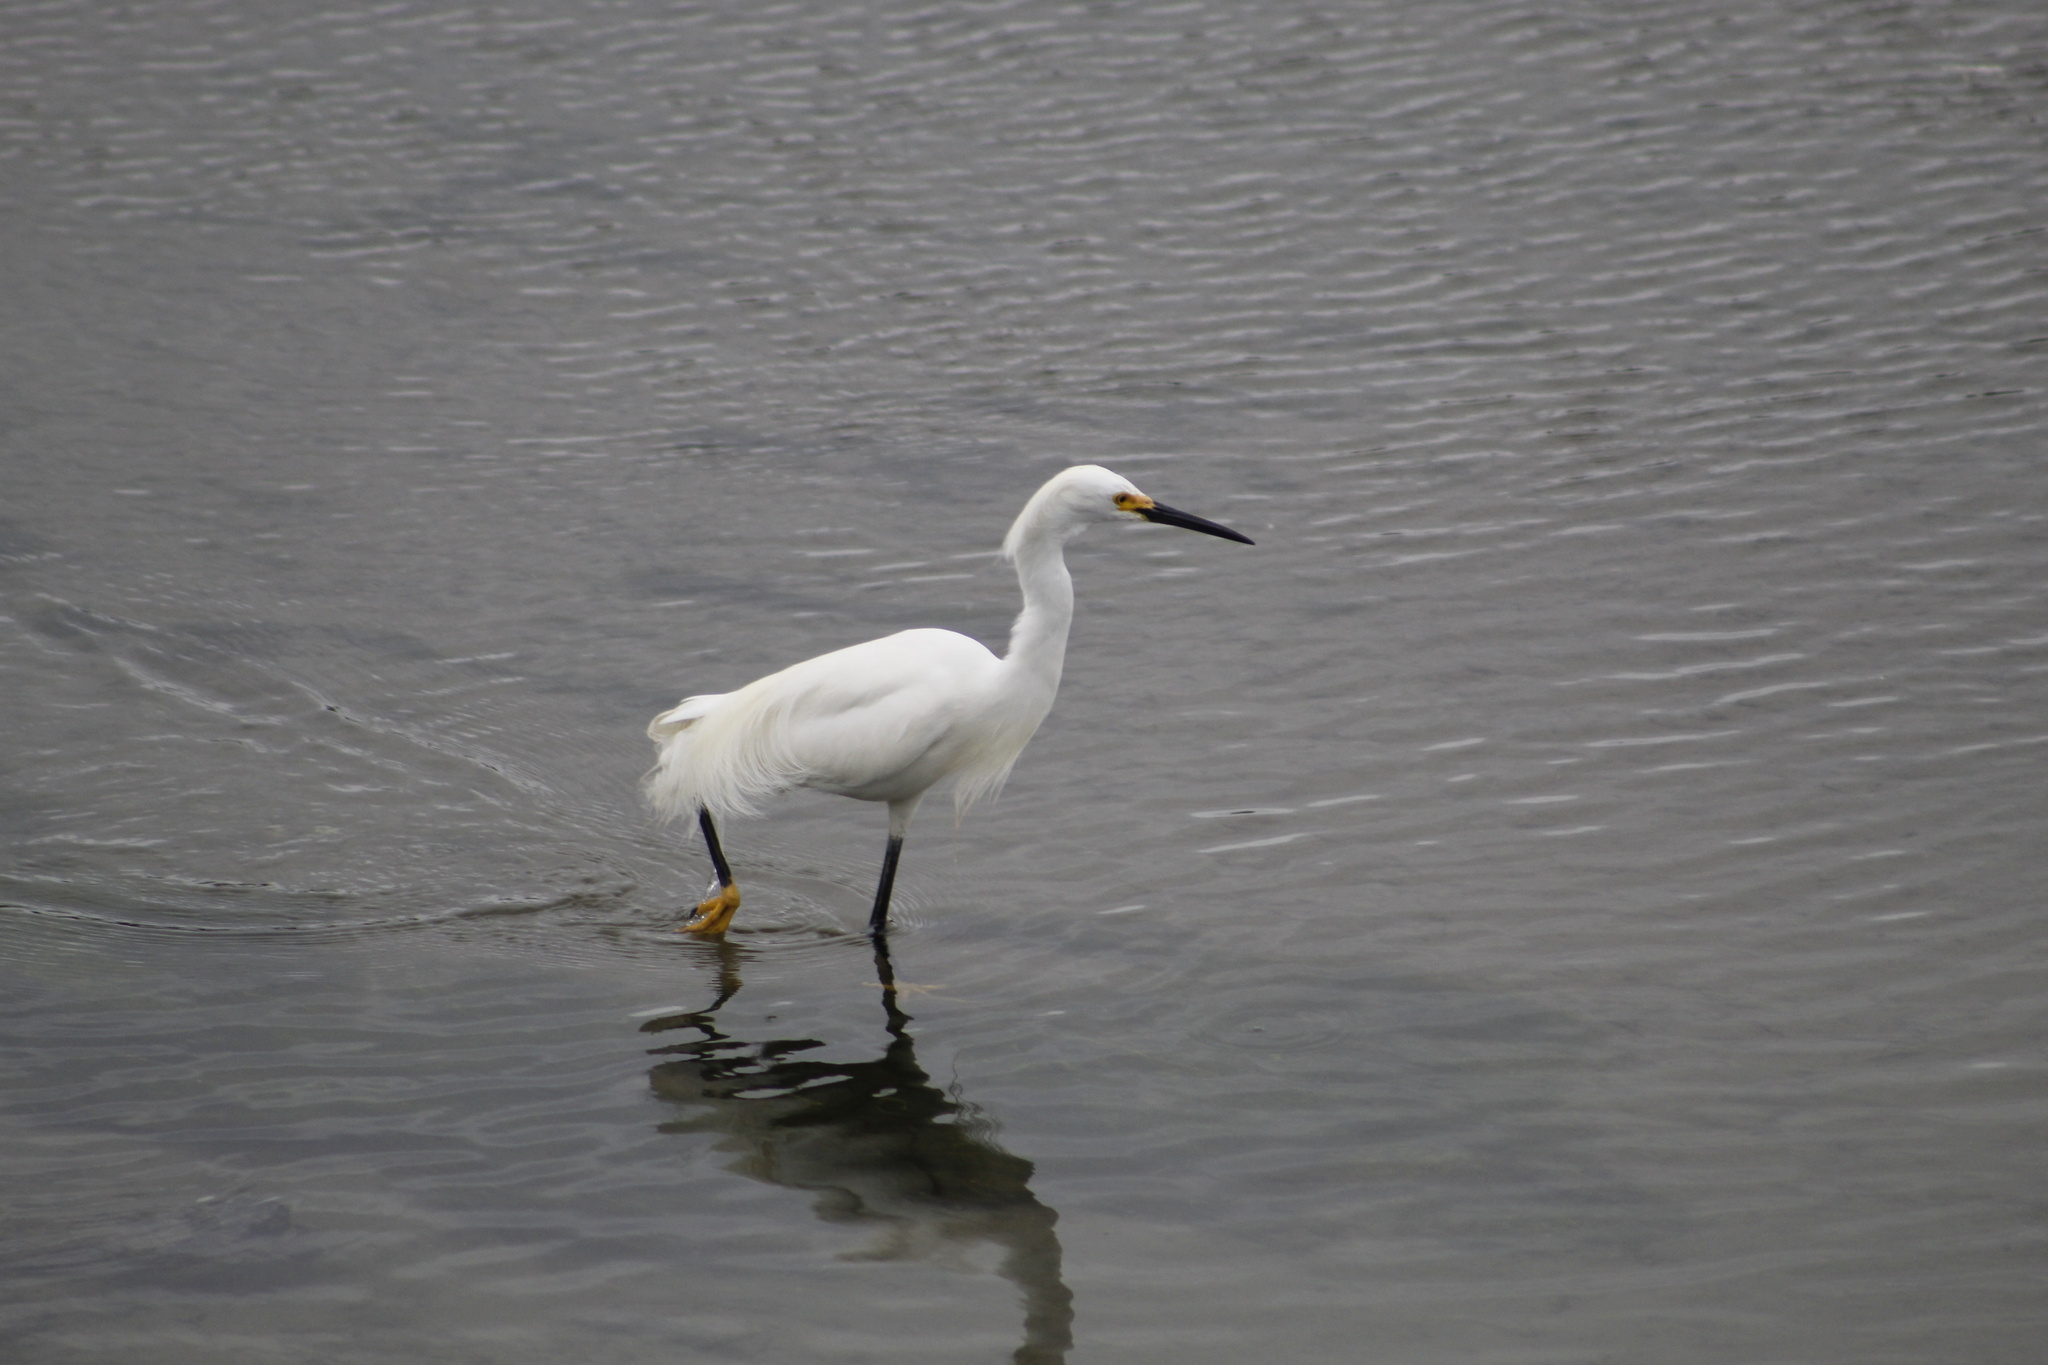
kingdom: Animalia
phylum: Chordata
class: Aves
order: Pelecaniformes
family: Ardeidae
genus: Egretta
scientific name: Egretta thula
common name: Snowy egret
